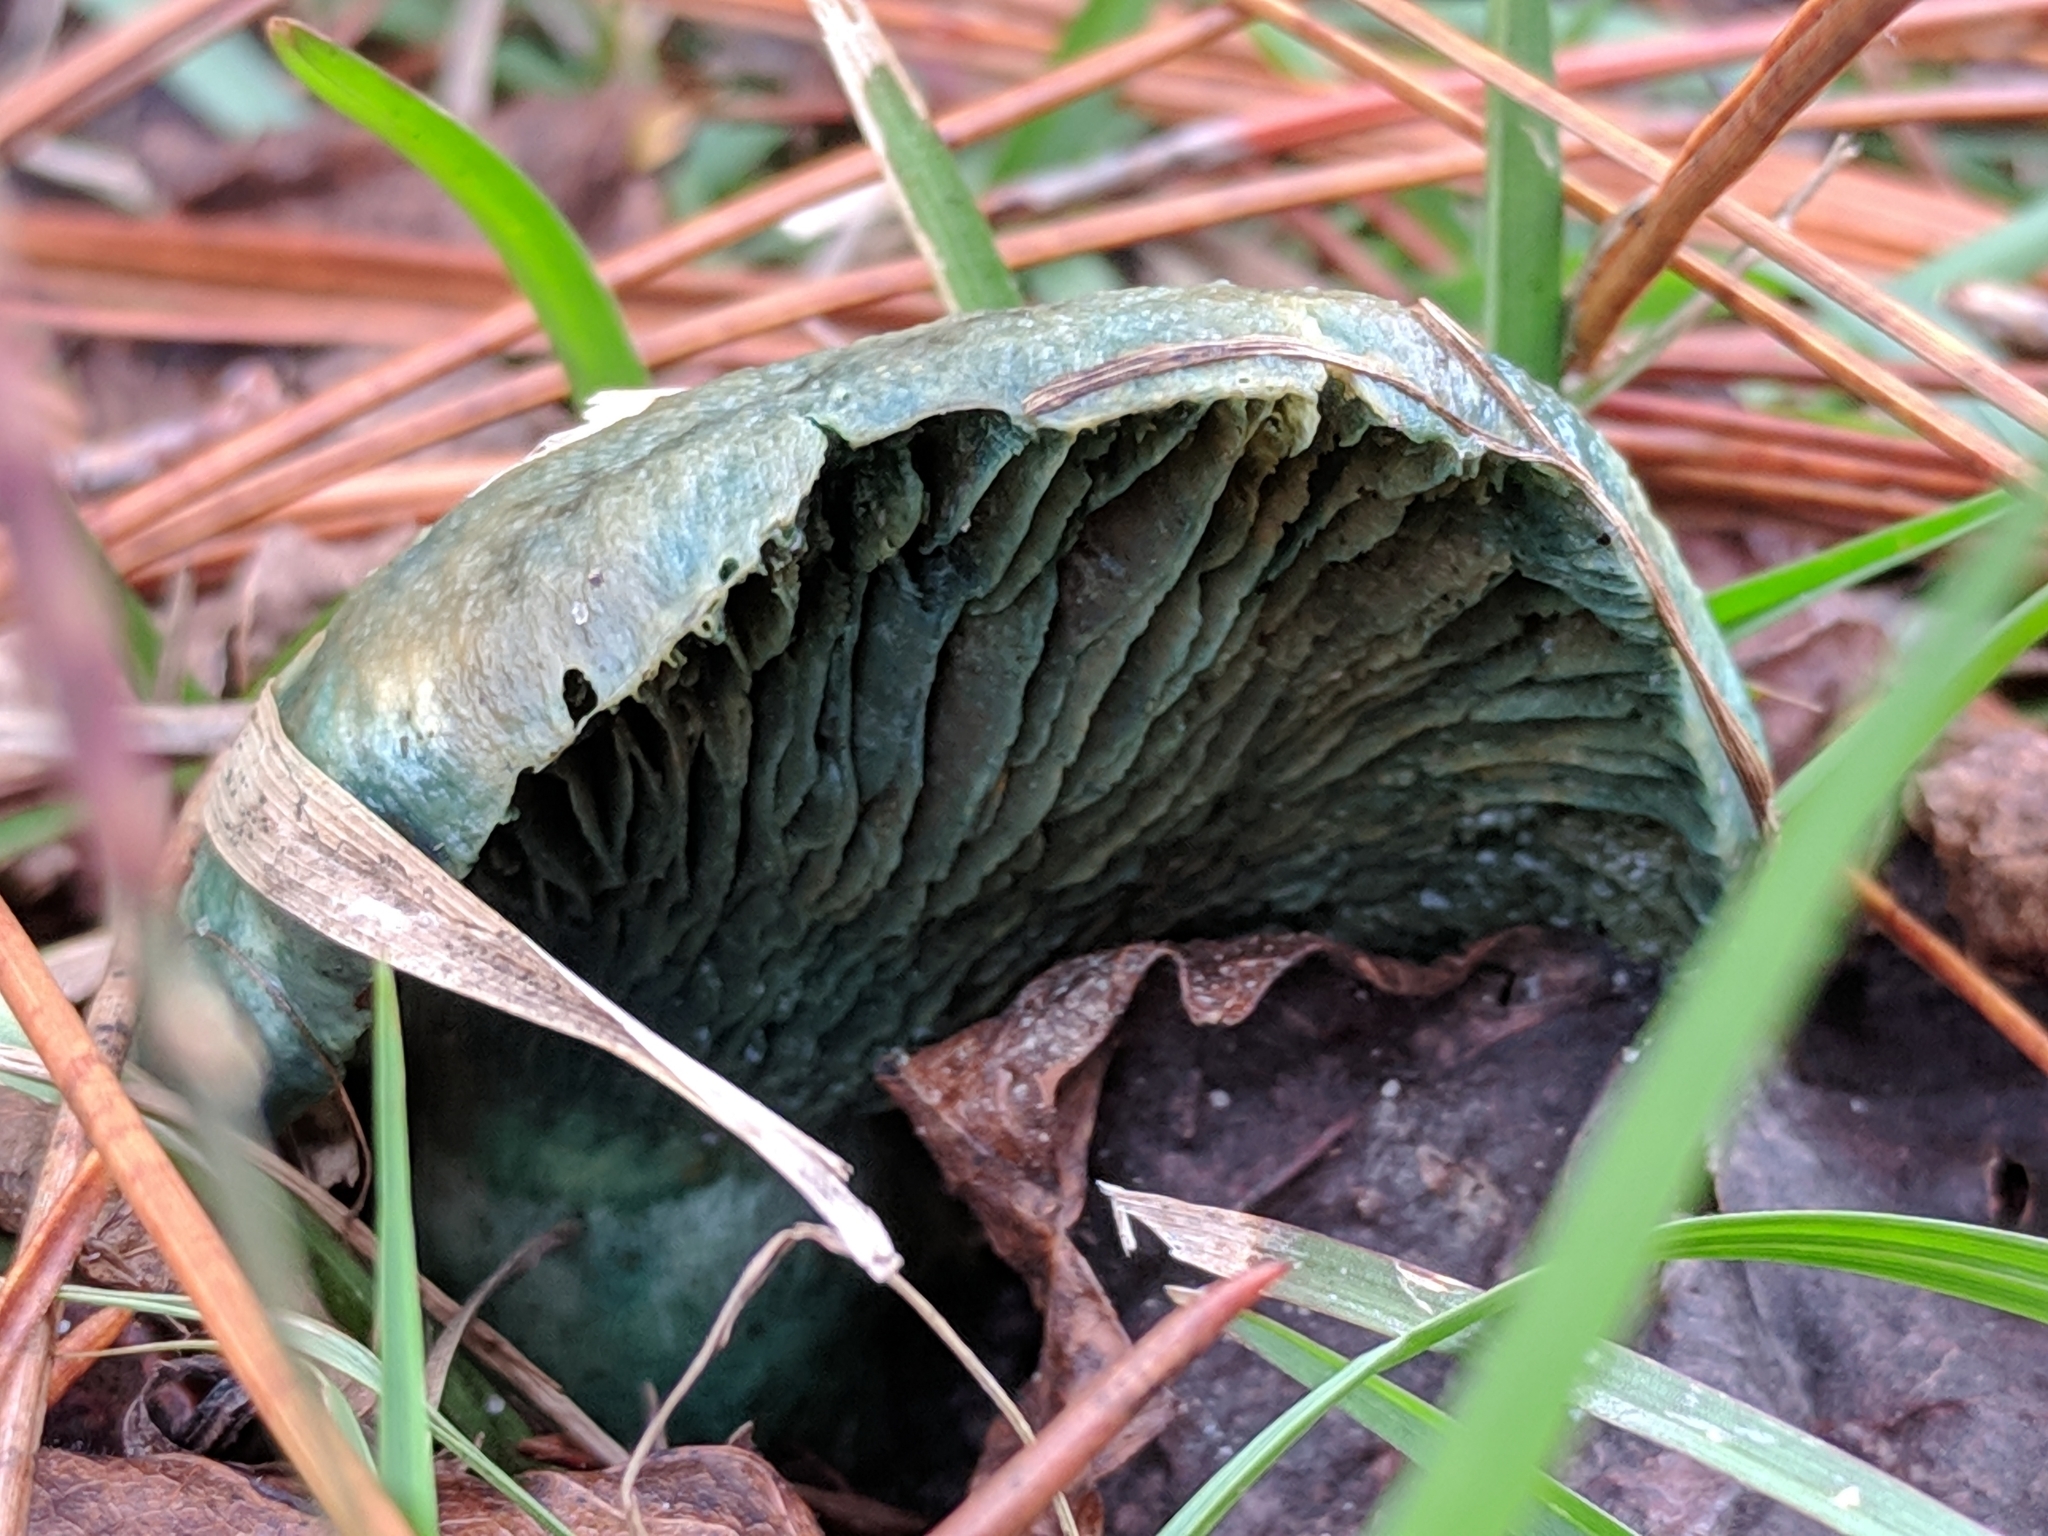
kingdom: Fungi
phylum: Basidiomycota
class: Agaricomycetes
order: Russulales
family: Russulaceae
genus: Lactarius
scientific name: Lactarius indigo
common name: Indigo milk cap
